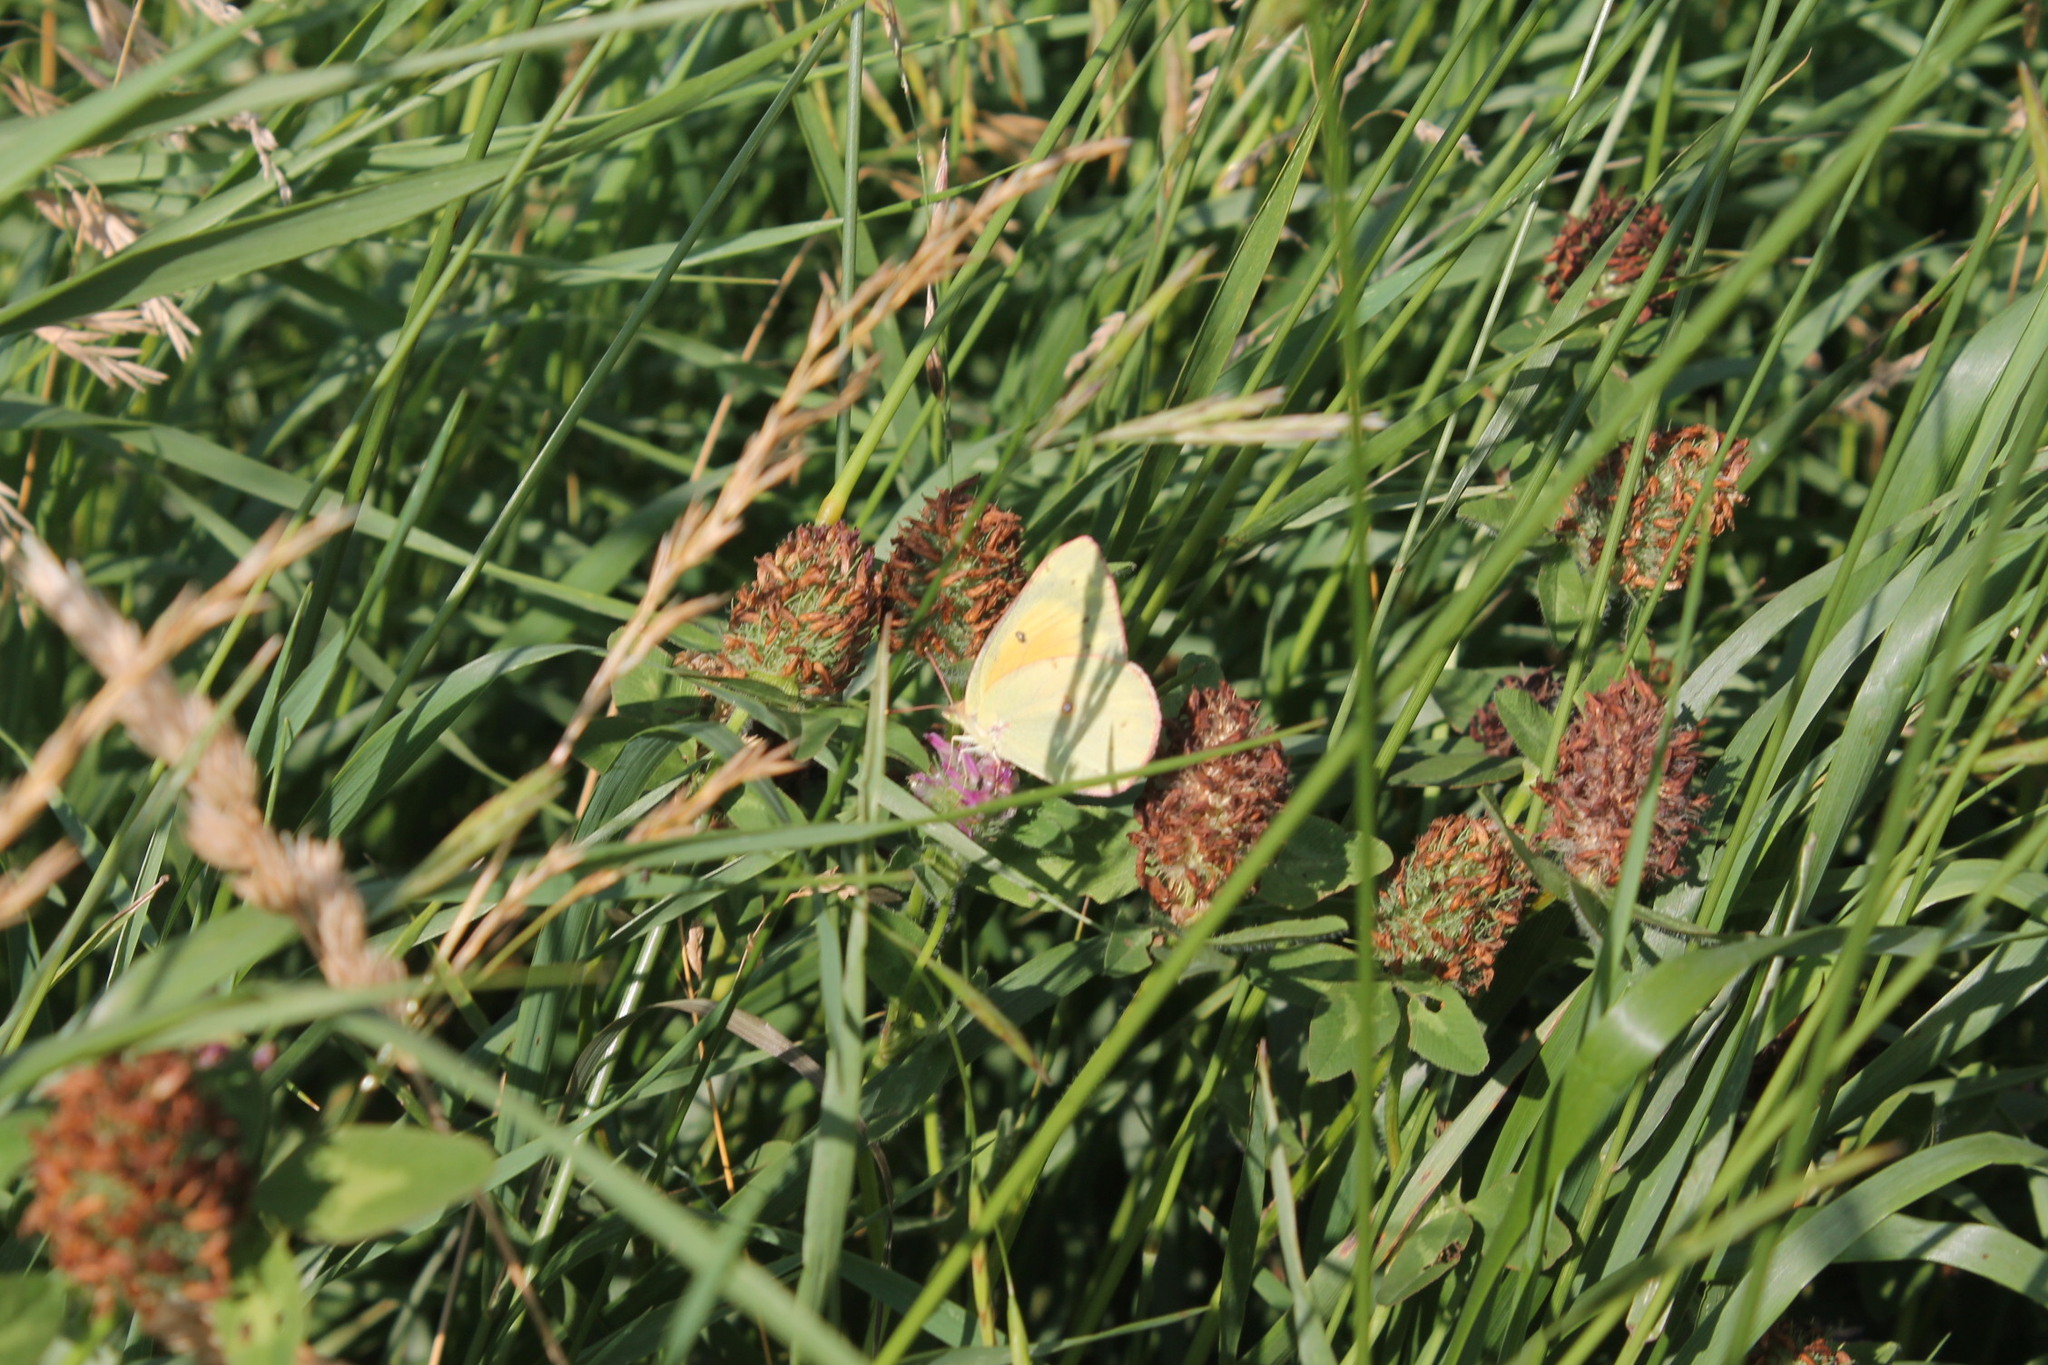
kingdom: Animalia
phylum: Arthropoda
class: Insecta
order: Lepidoptera
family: Pieridae
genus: Colias
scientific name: Colias eurytheme
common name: Alfalfa butterfly
